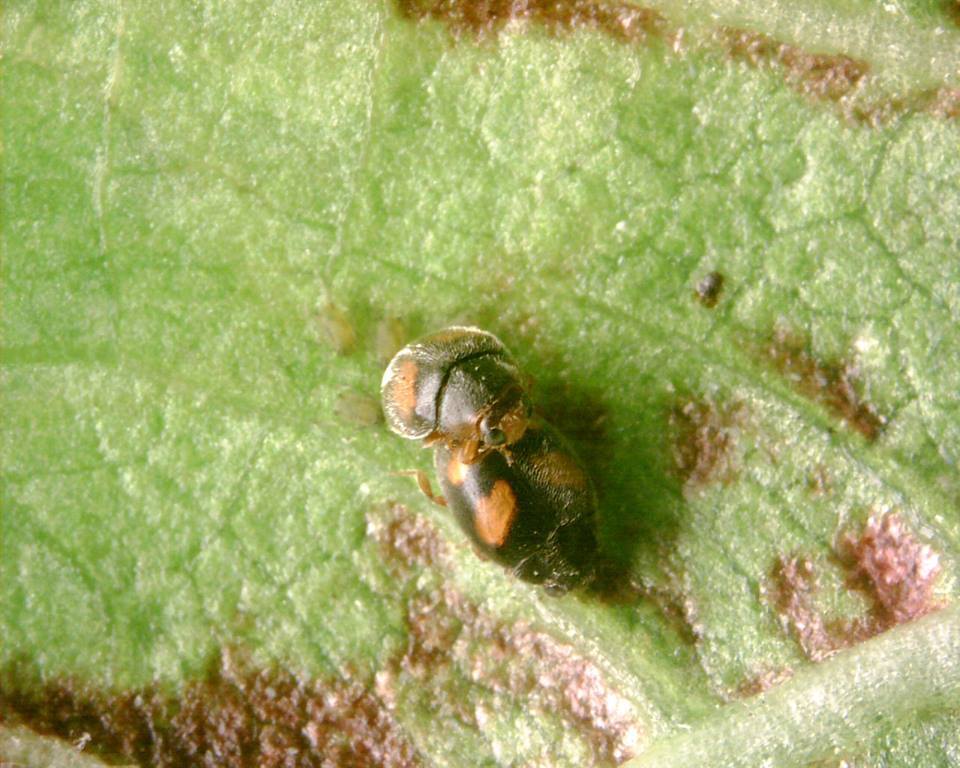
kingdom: Animalia
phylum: Arthropoda
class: Insecta
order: Coleoptera
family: Coccinellidae
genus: Scymnus
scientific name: Scymnus quadrillum
